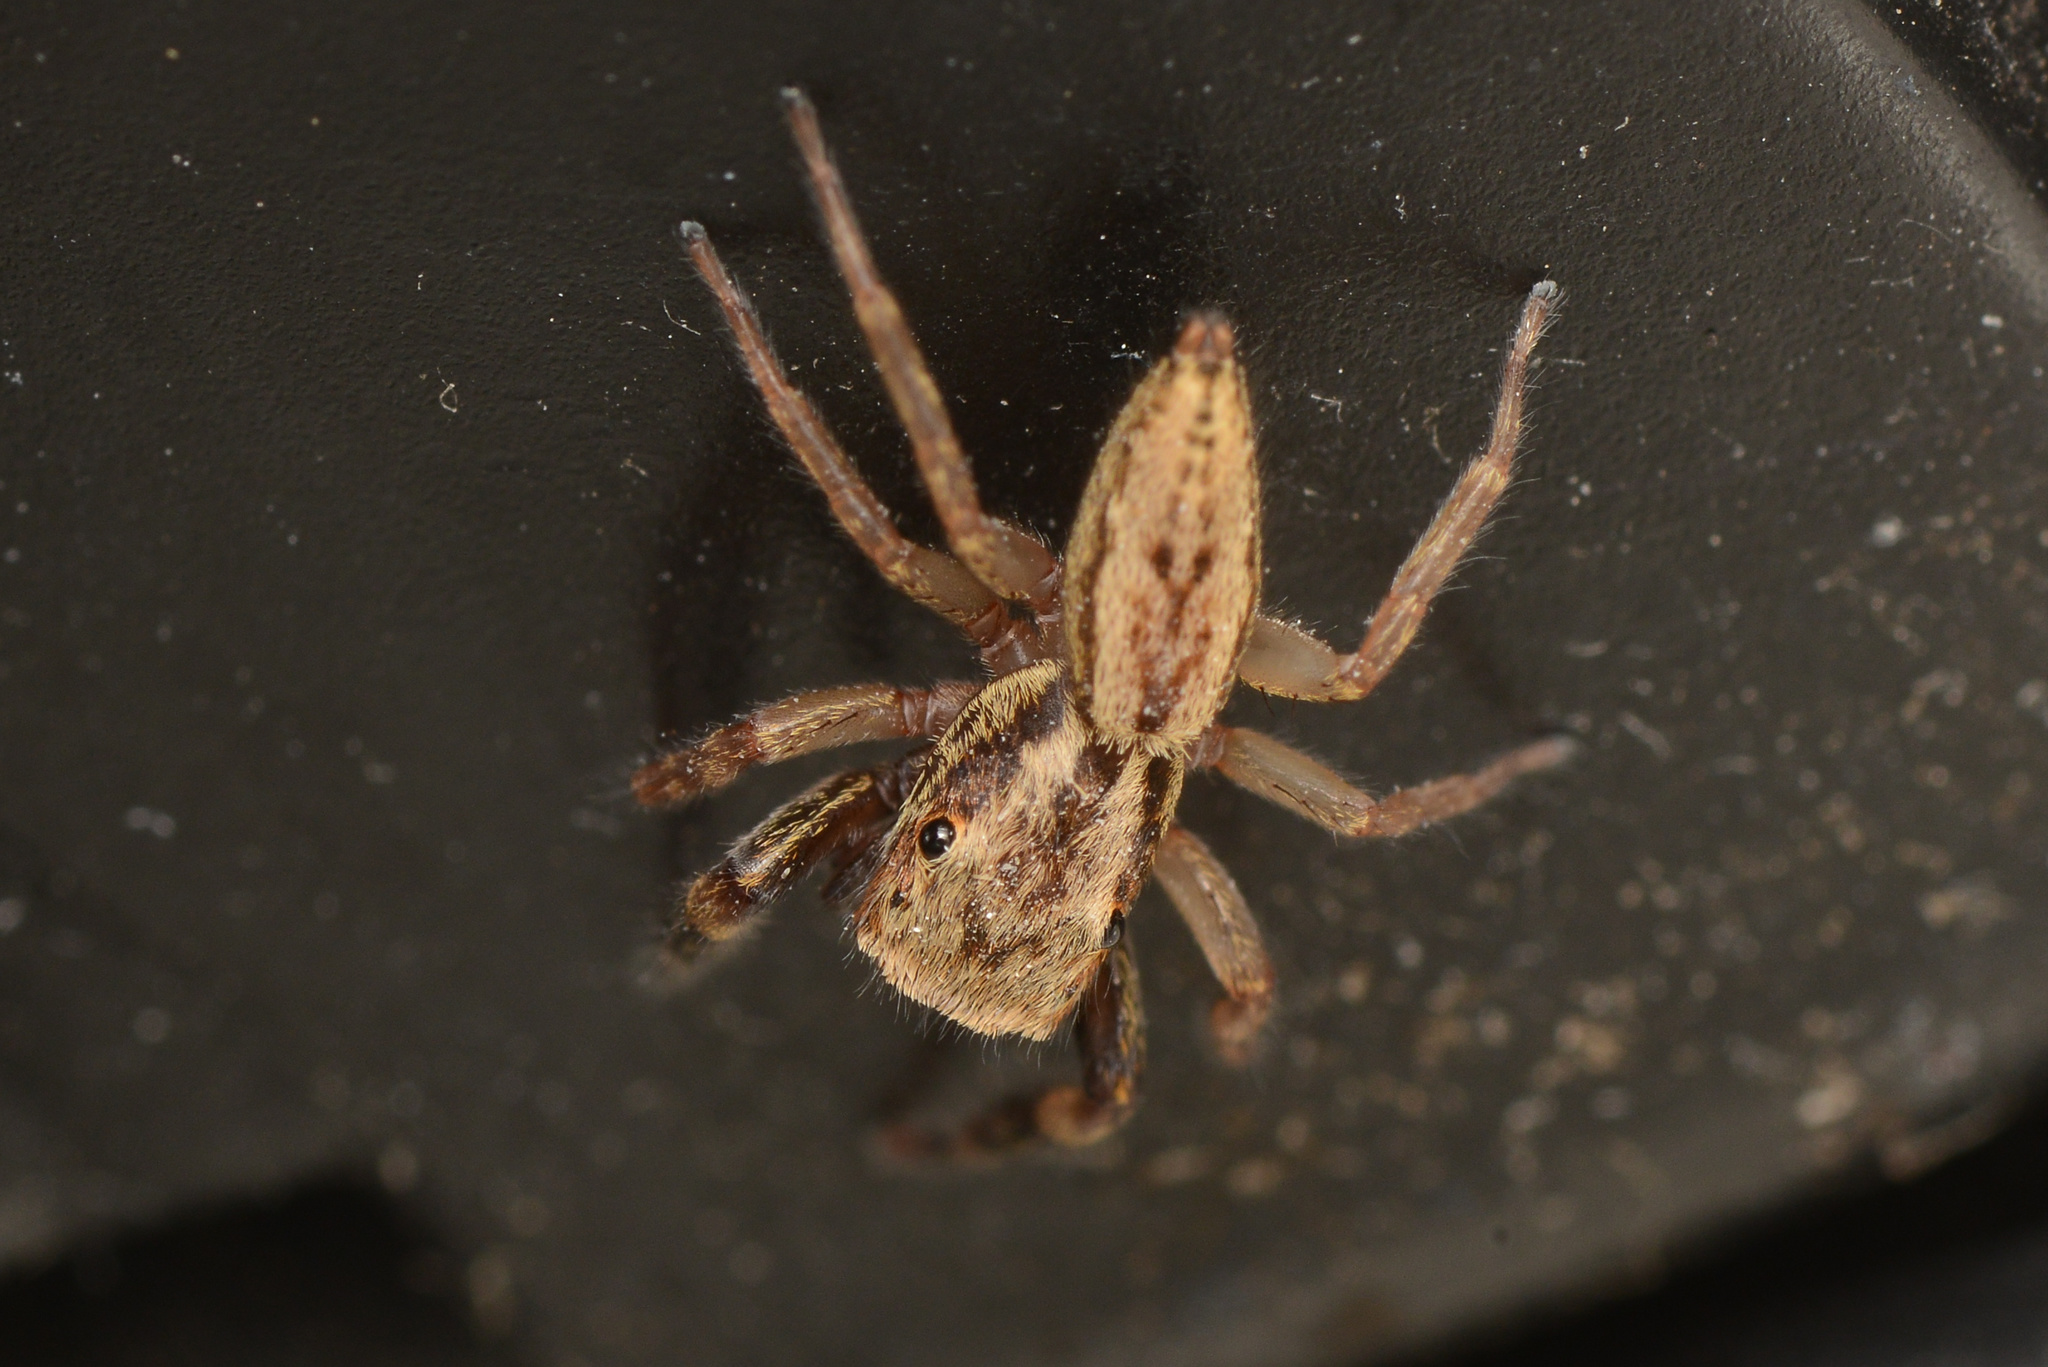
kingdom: Animalia
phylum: Arthropoda
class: Arachnida
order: Araneae
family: Salticidae
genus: Trite
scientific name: Trite auricoma
